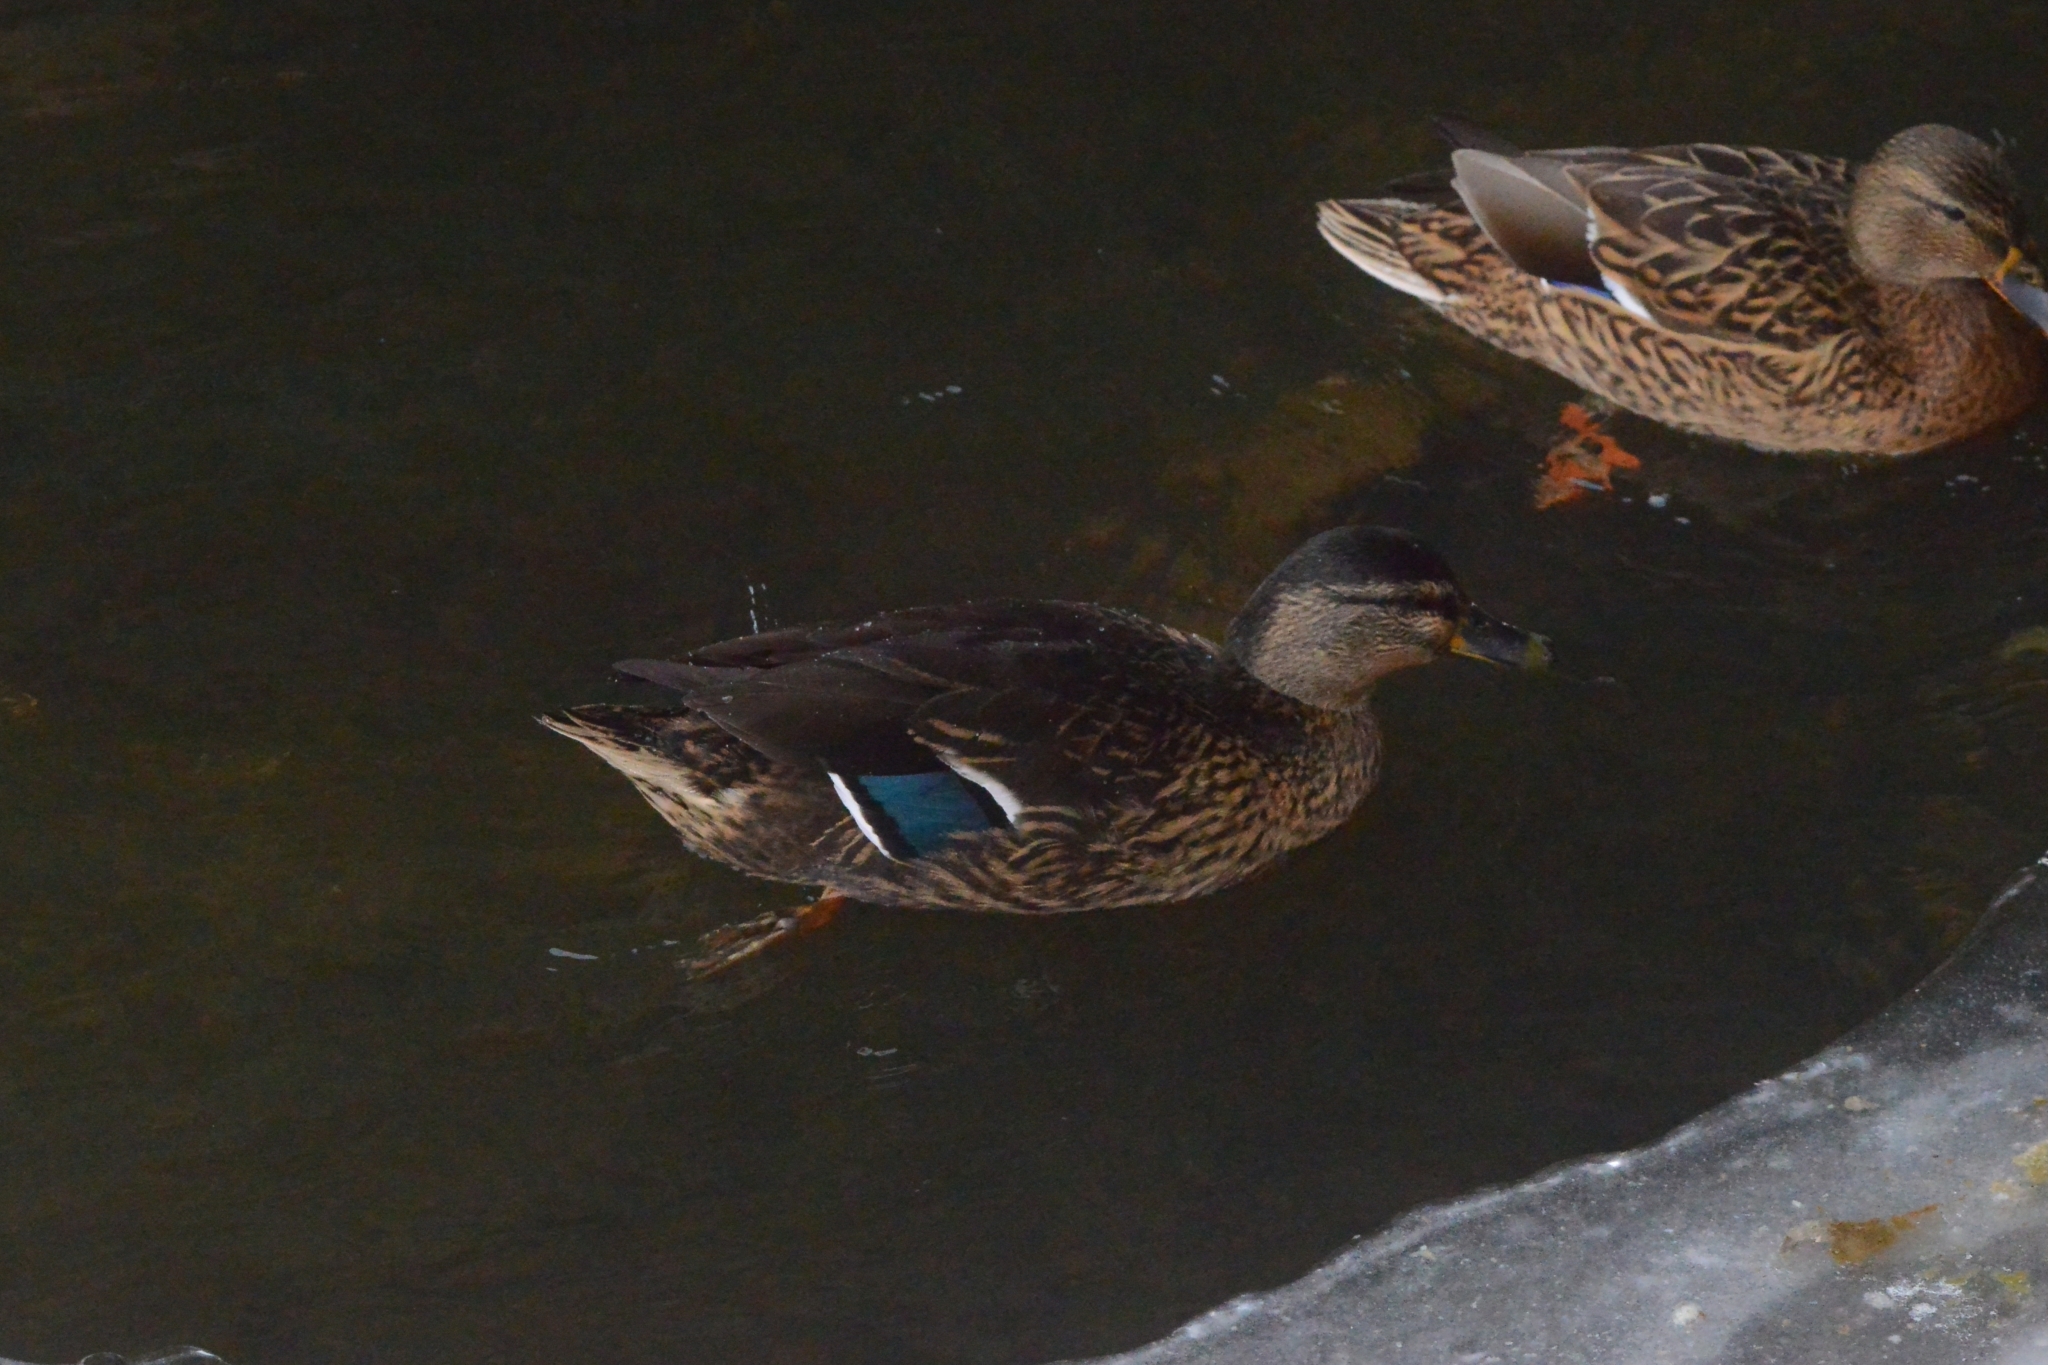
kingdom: Animalia
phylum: Chordata
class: Aves
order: Anseriformes
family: Anatidae
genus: Anas
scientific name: Anas platyrhynchos
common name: Mallard
